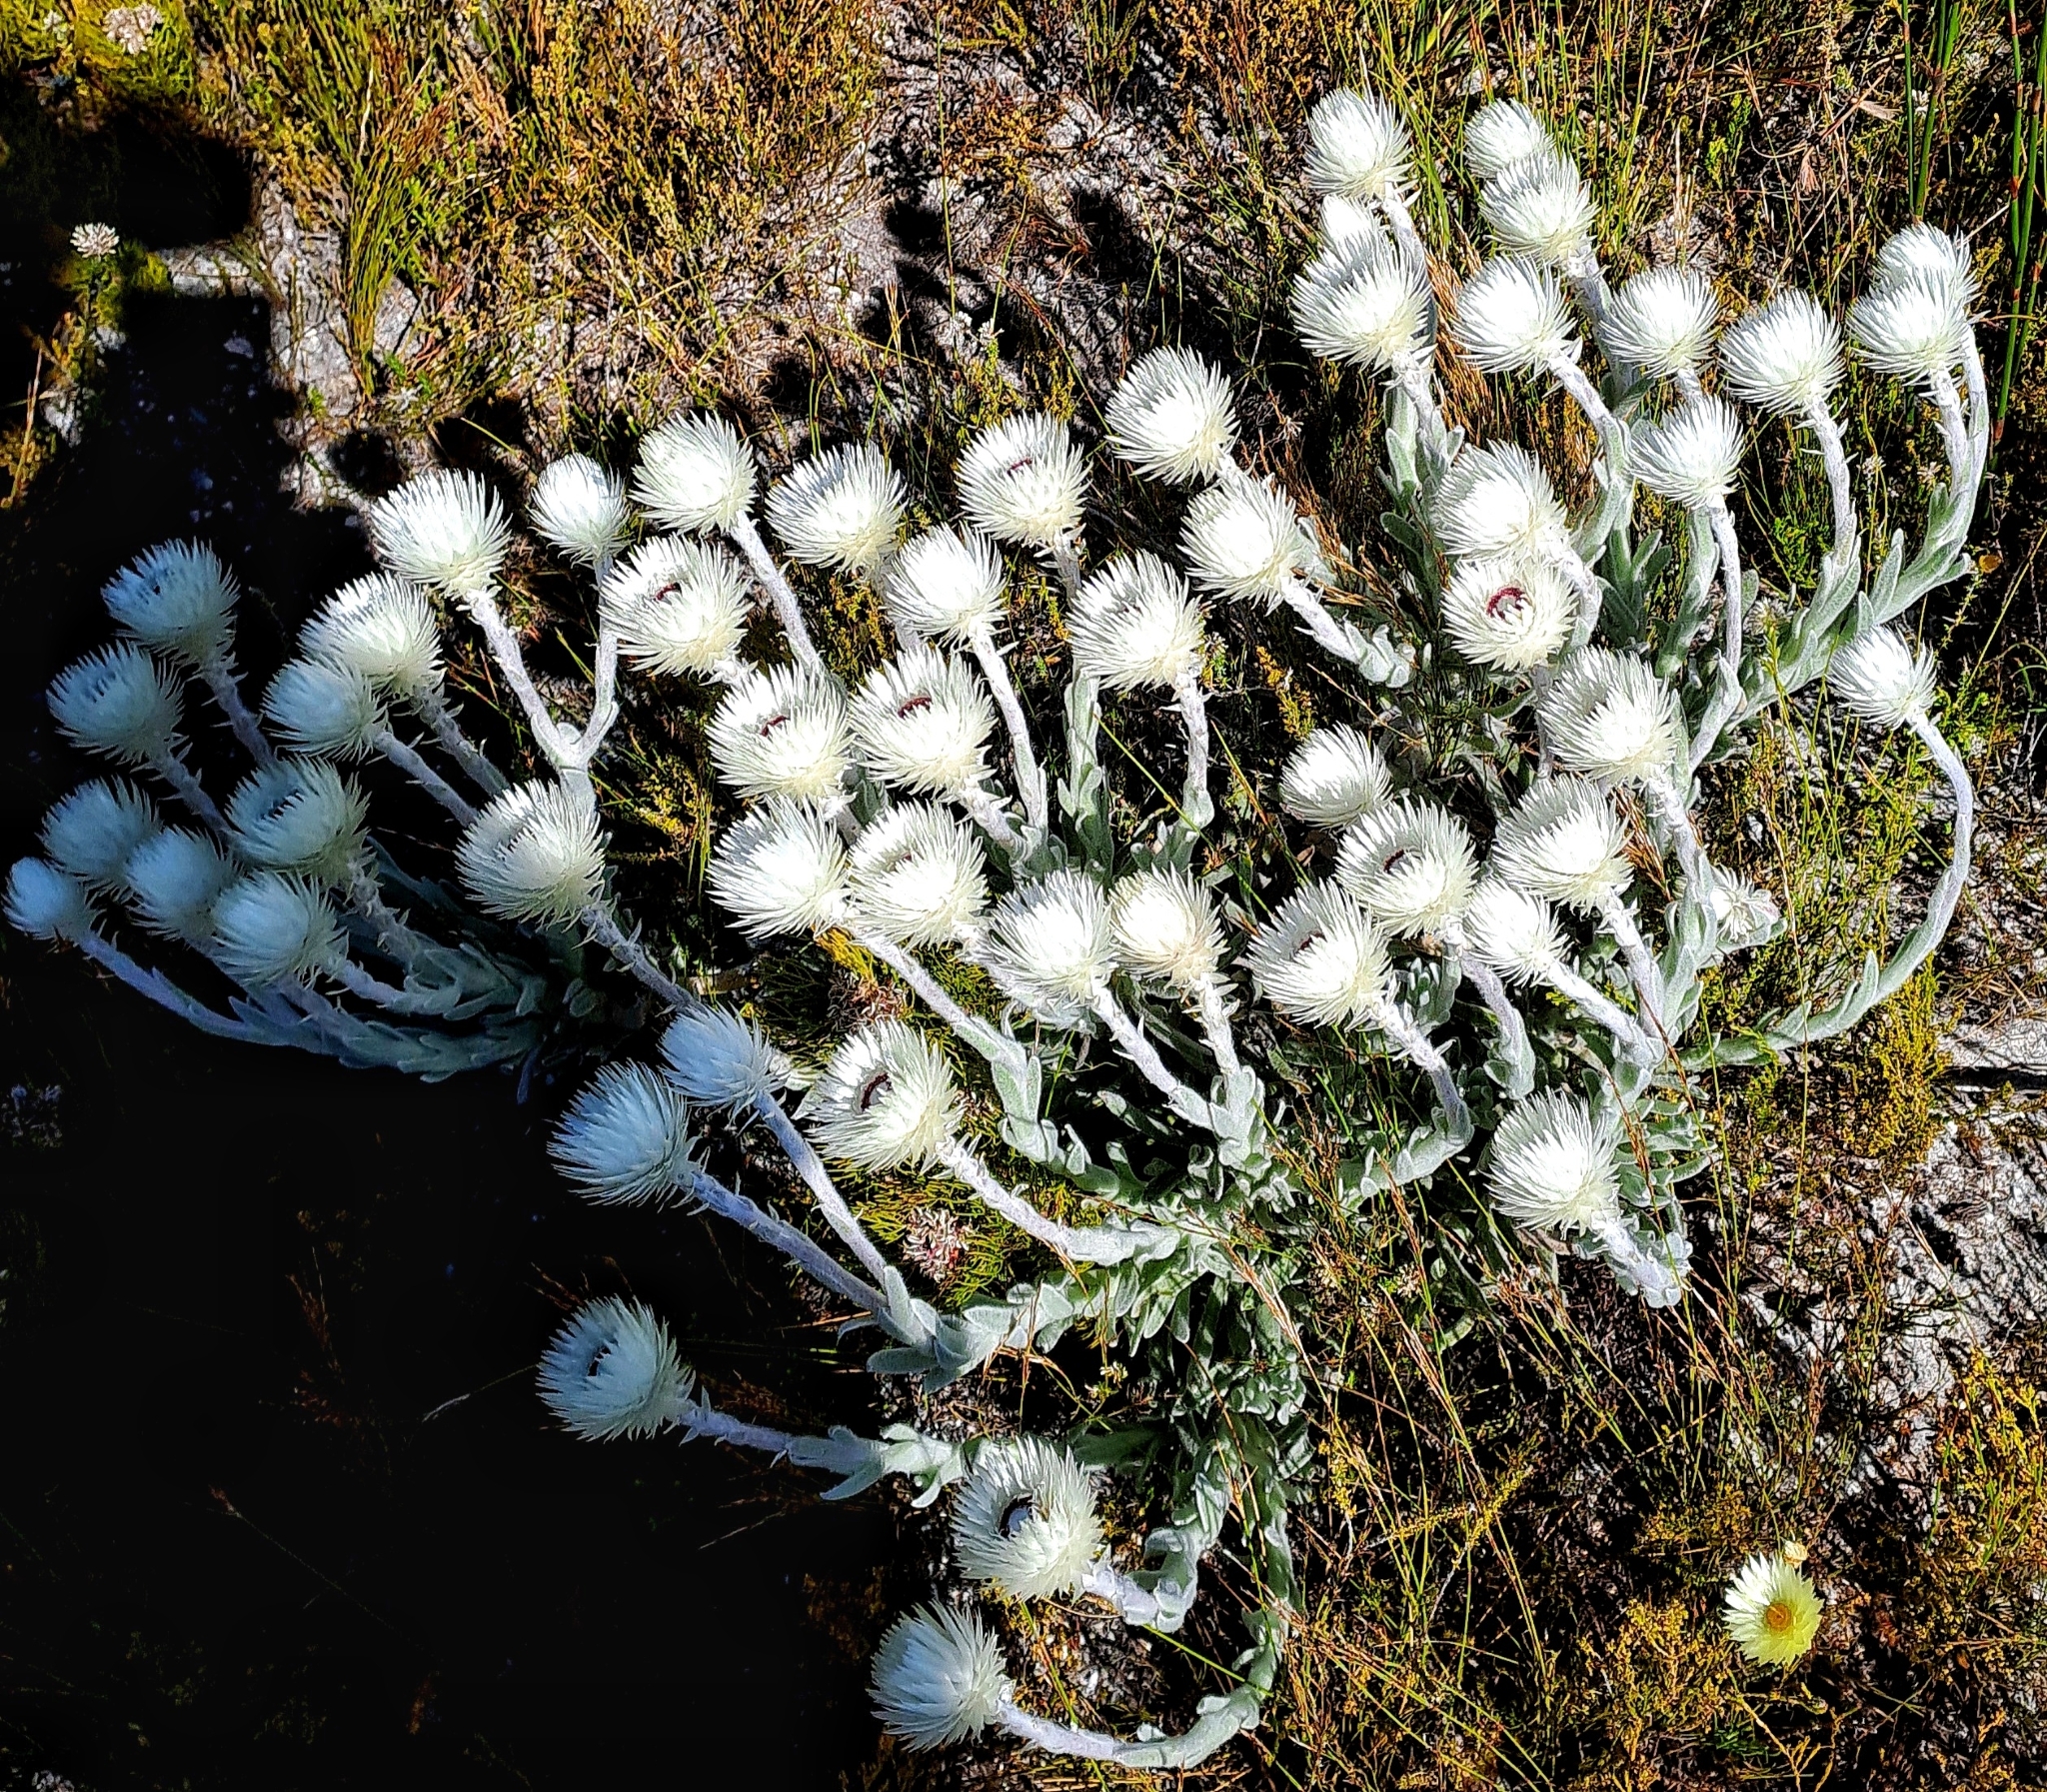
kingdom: Plantae
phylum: Tracheophyta
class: Magnoliopsida
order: Asterales
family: Asteraceae
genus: Syncarpha
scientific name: Syncarpha vestita
